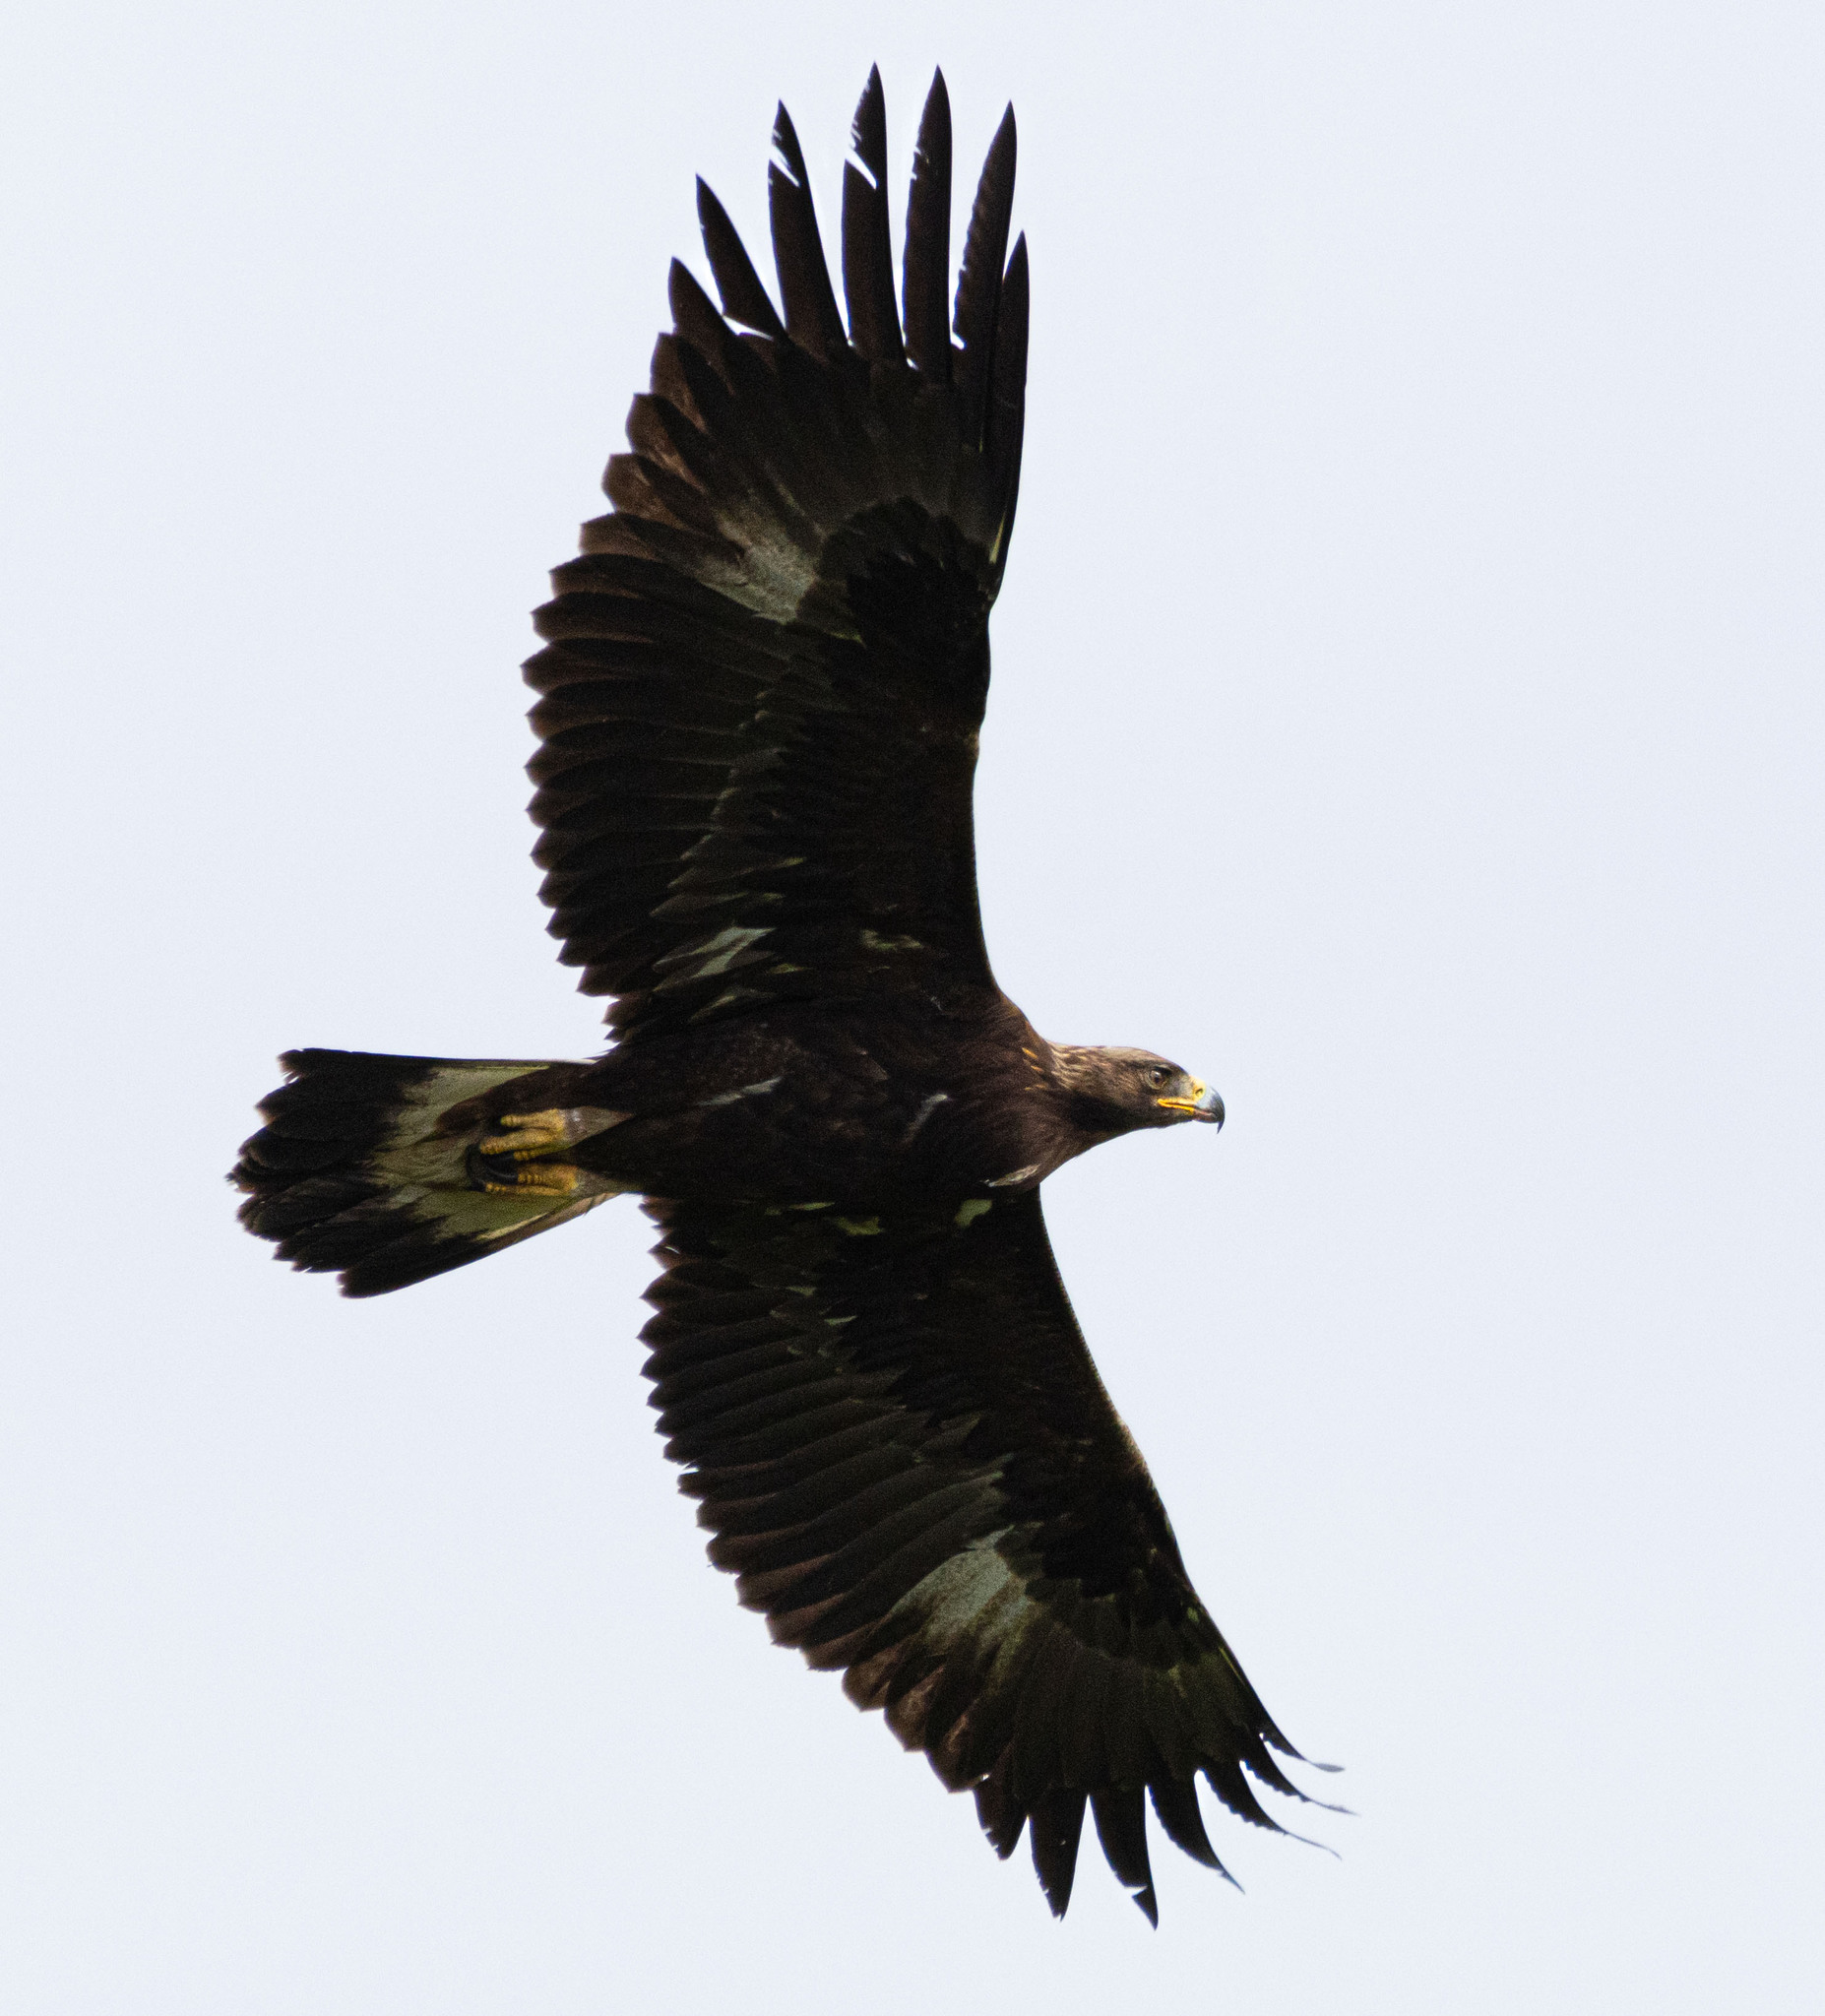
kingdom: Animalia
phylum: Chordata
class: Aves
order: Accipitriformes
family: Accipitridae
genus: Aquila
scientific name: Aquila chrysaetos
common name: Golden eagle
